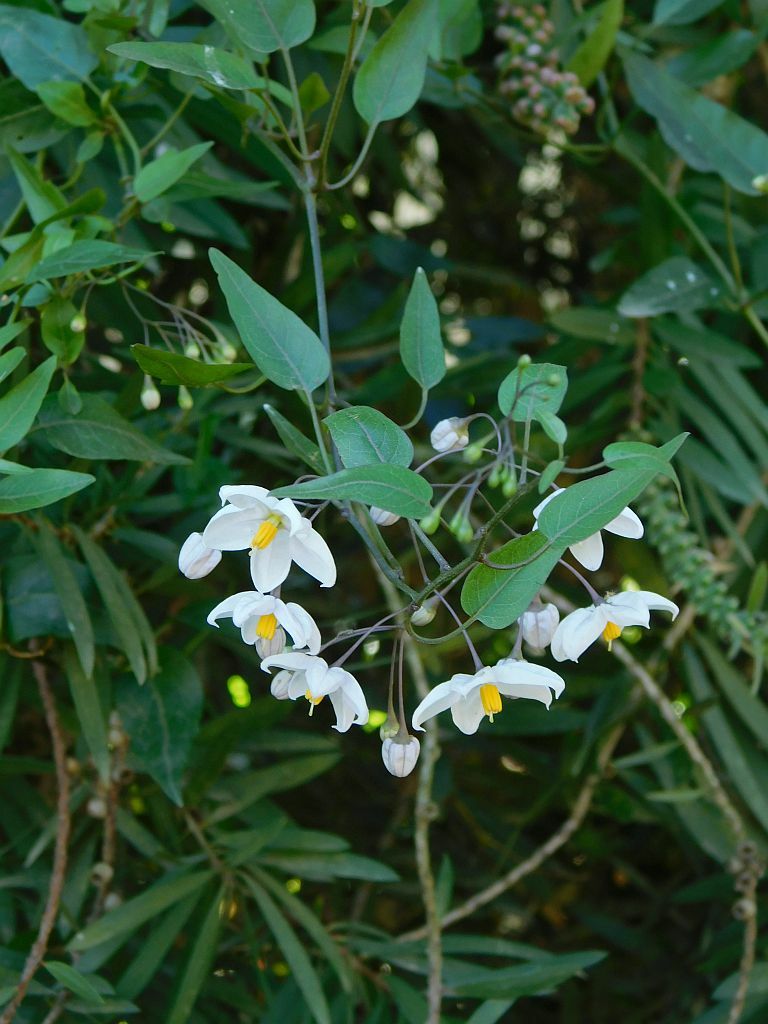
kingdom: Plantae
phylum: Tracheophyta
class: Magnoliopsida
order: Solanales
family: Solanaceae
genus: Solanum
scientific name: Solanum laxum
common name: Nightshade
